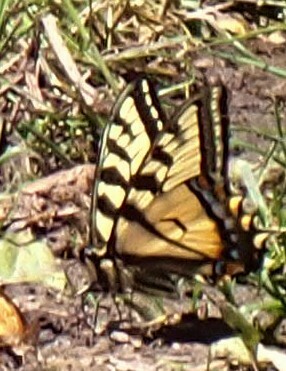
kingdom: Animalia
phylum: Arthropoda
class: Insecta
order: Lepidoptera
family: Papilionidae
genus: Papilio
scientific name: Papilio canadensis
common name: Canadian tiger swallowtail
